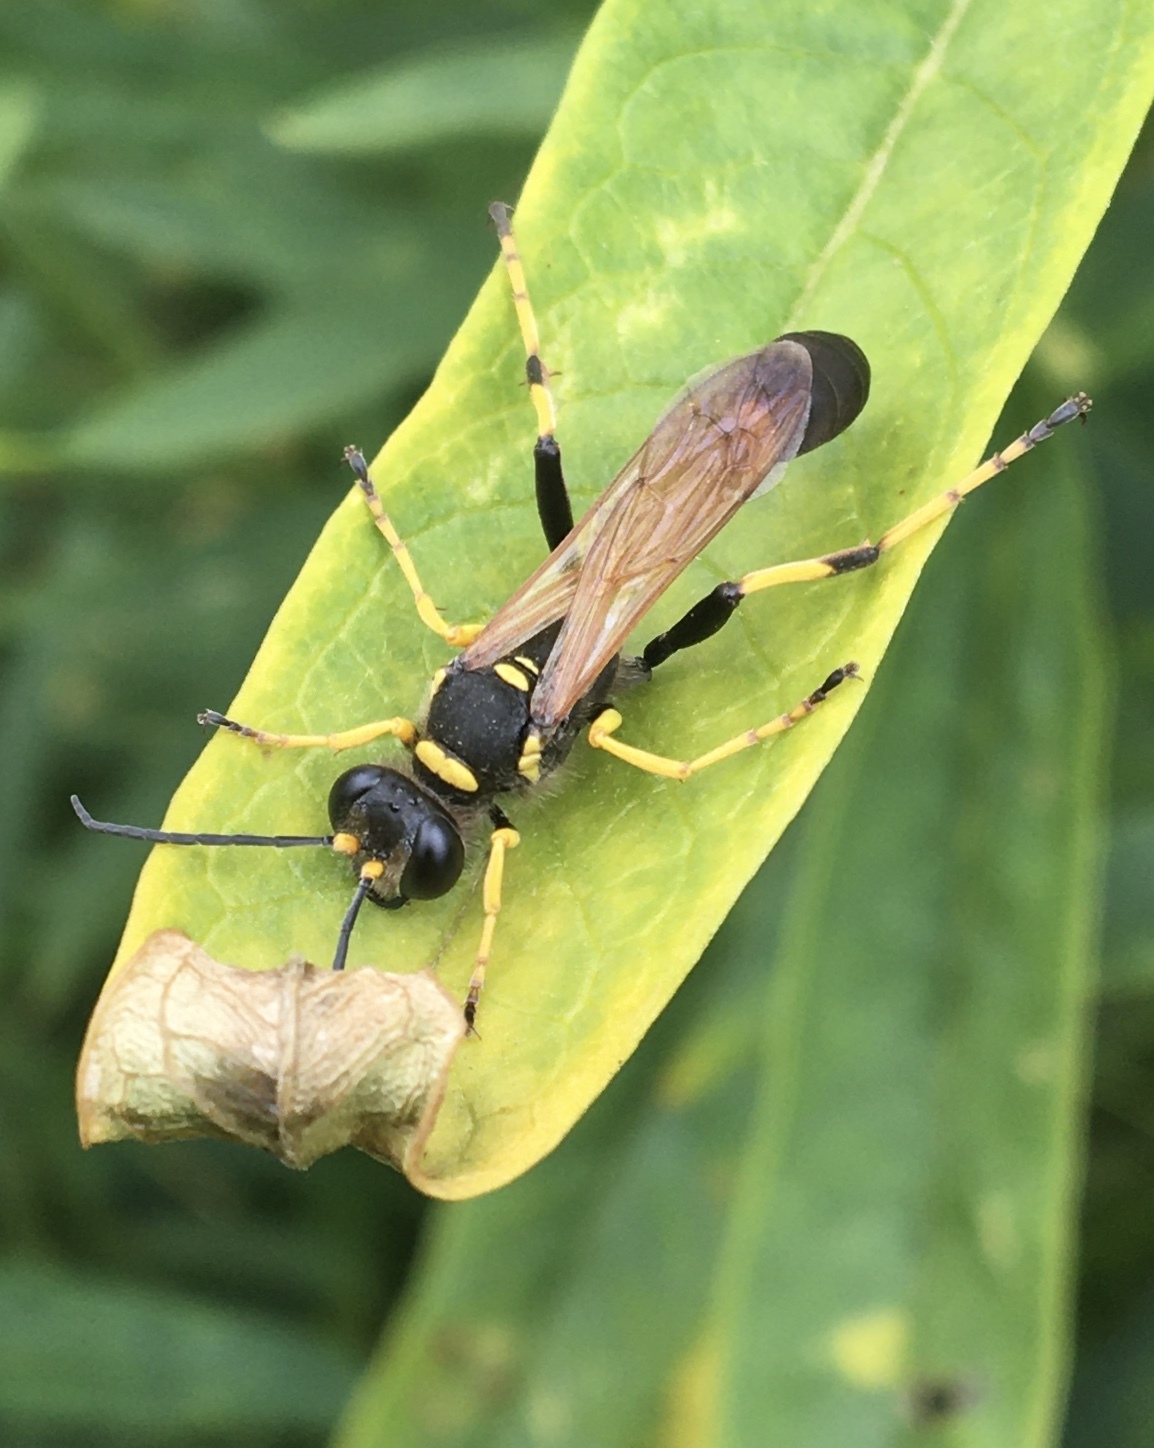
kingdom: Animalia
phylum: Arthropoda
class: Insecta
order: Hymenoptera
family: Sphecidae
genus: Sceliphron
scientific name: Sceliphron caementarium
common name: Mud dauber
